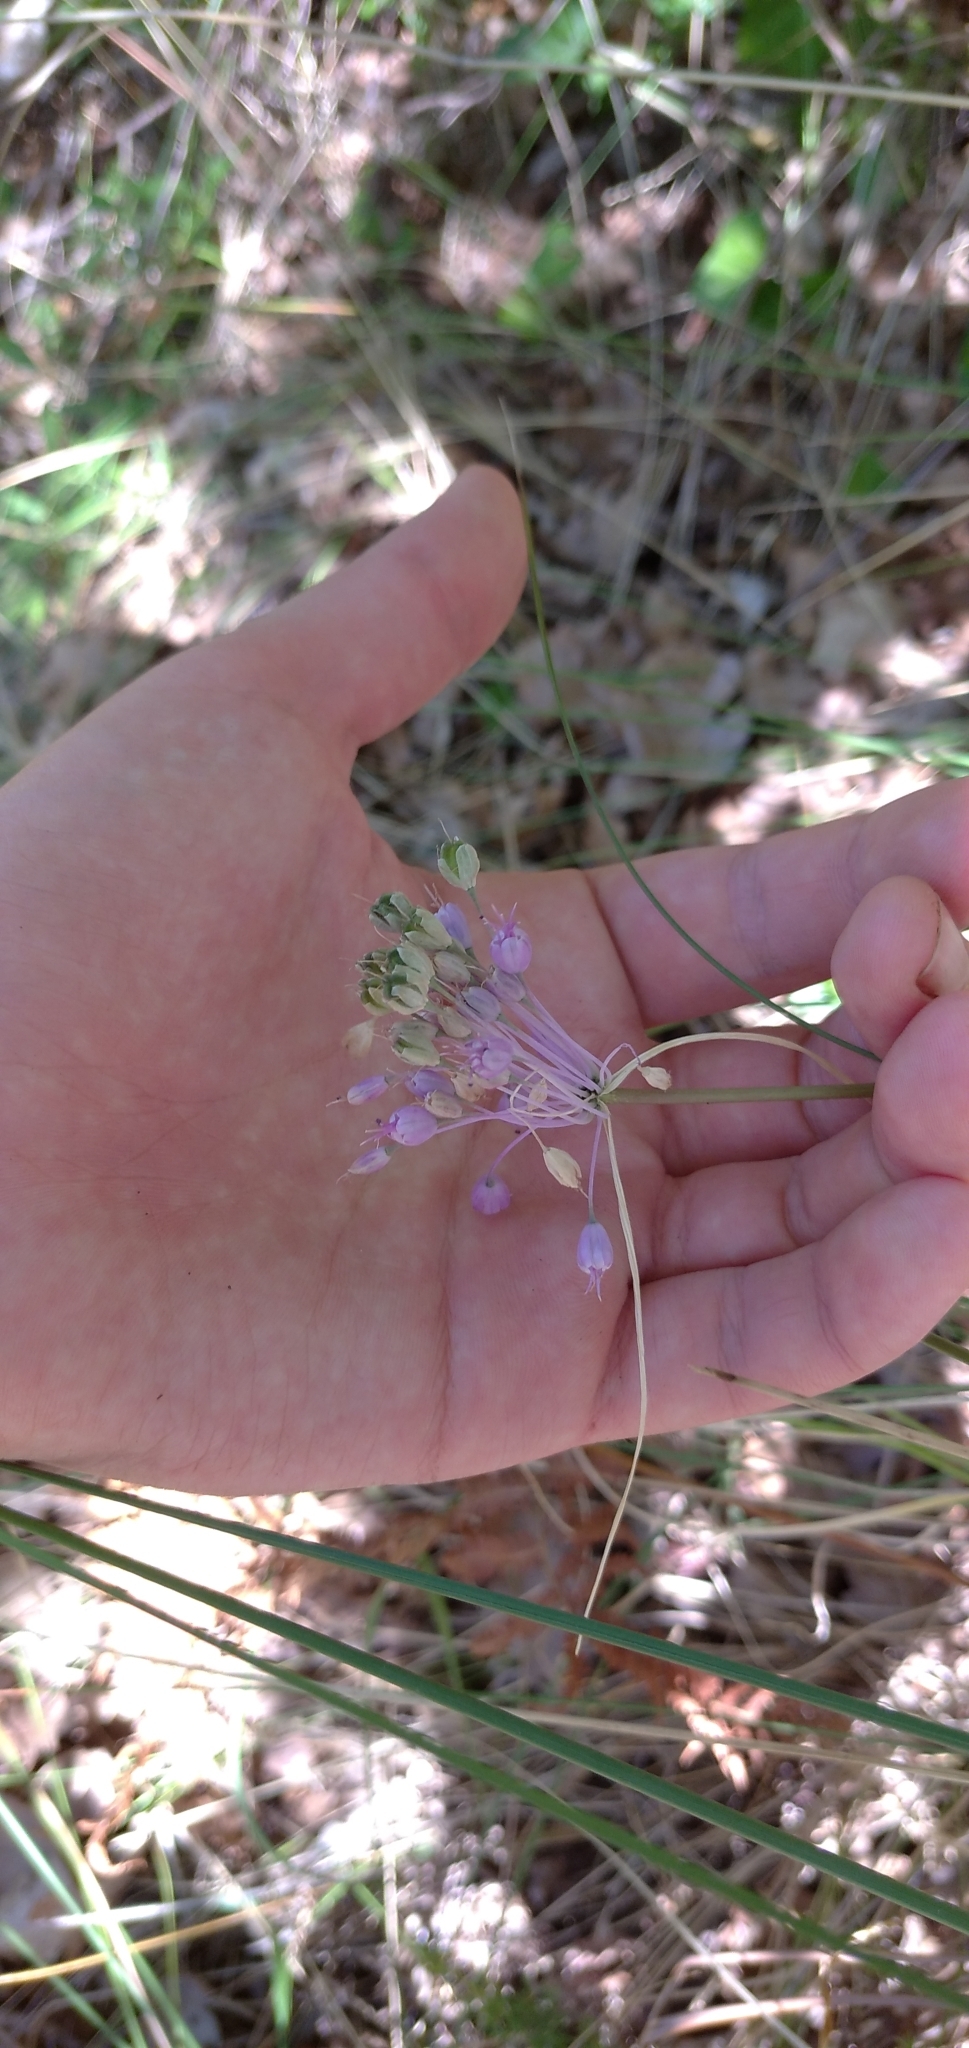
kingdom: Plantae
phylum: Tracheophyta
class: Liliopsida
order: Asparagales
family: Amaryllidaceae
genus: Allium
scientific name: Allium carinatum
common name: Keeled garlic
